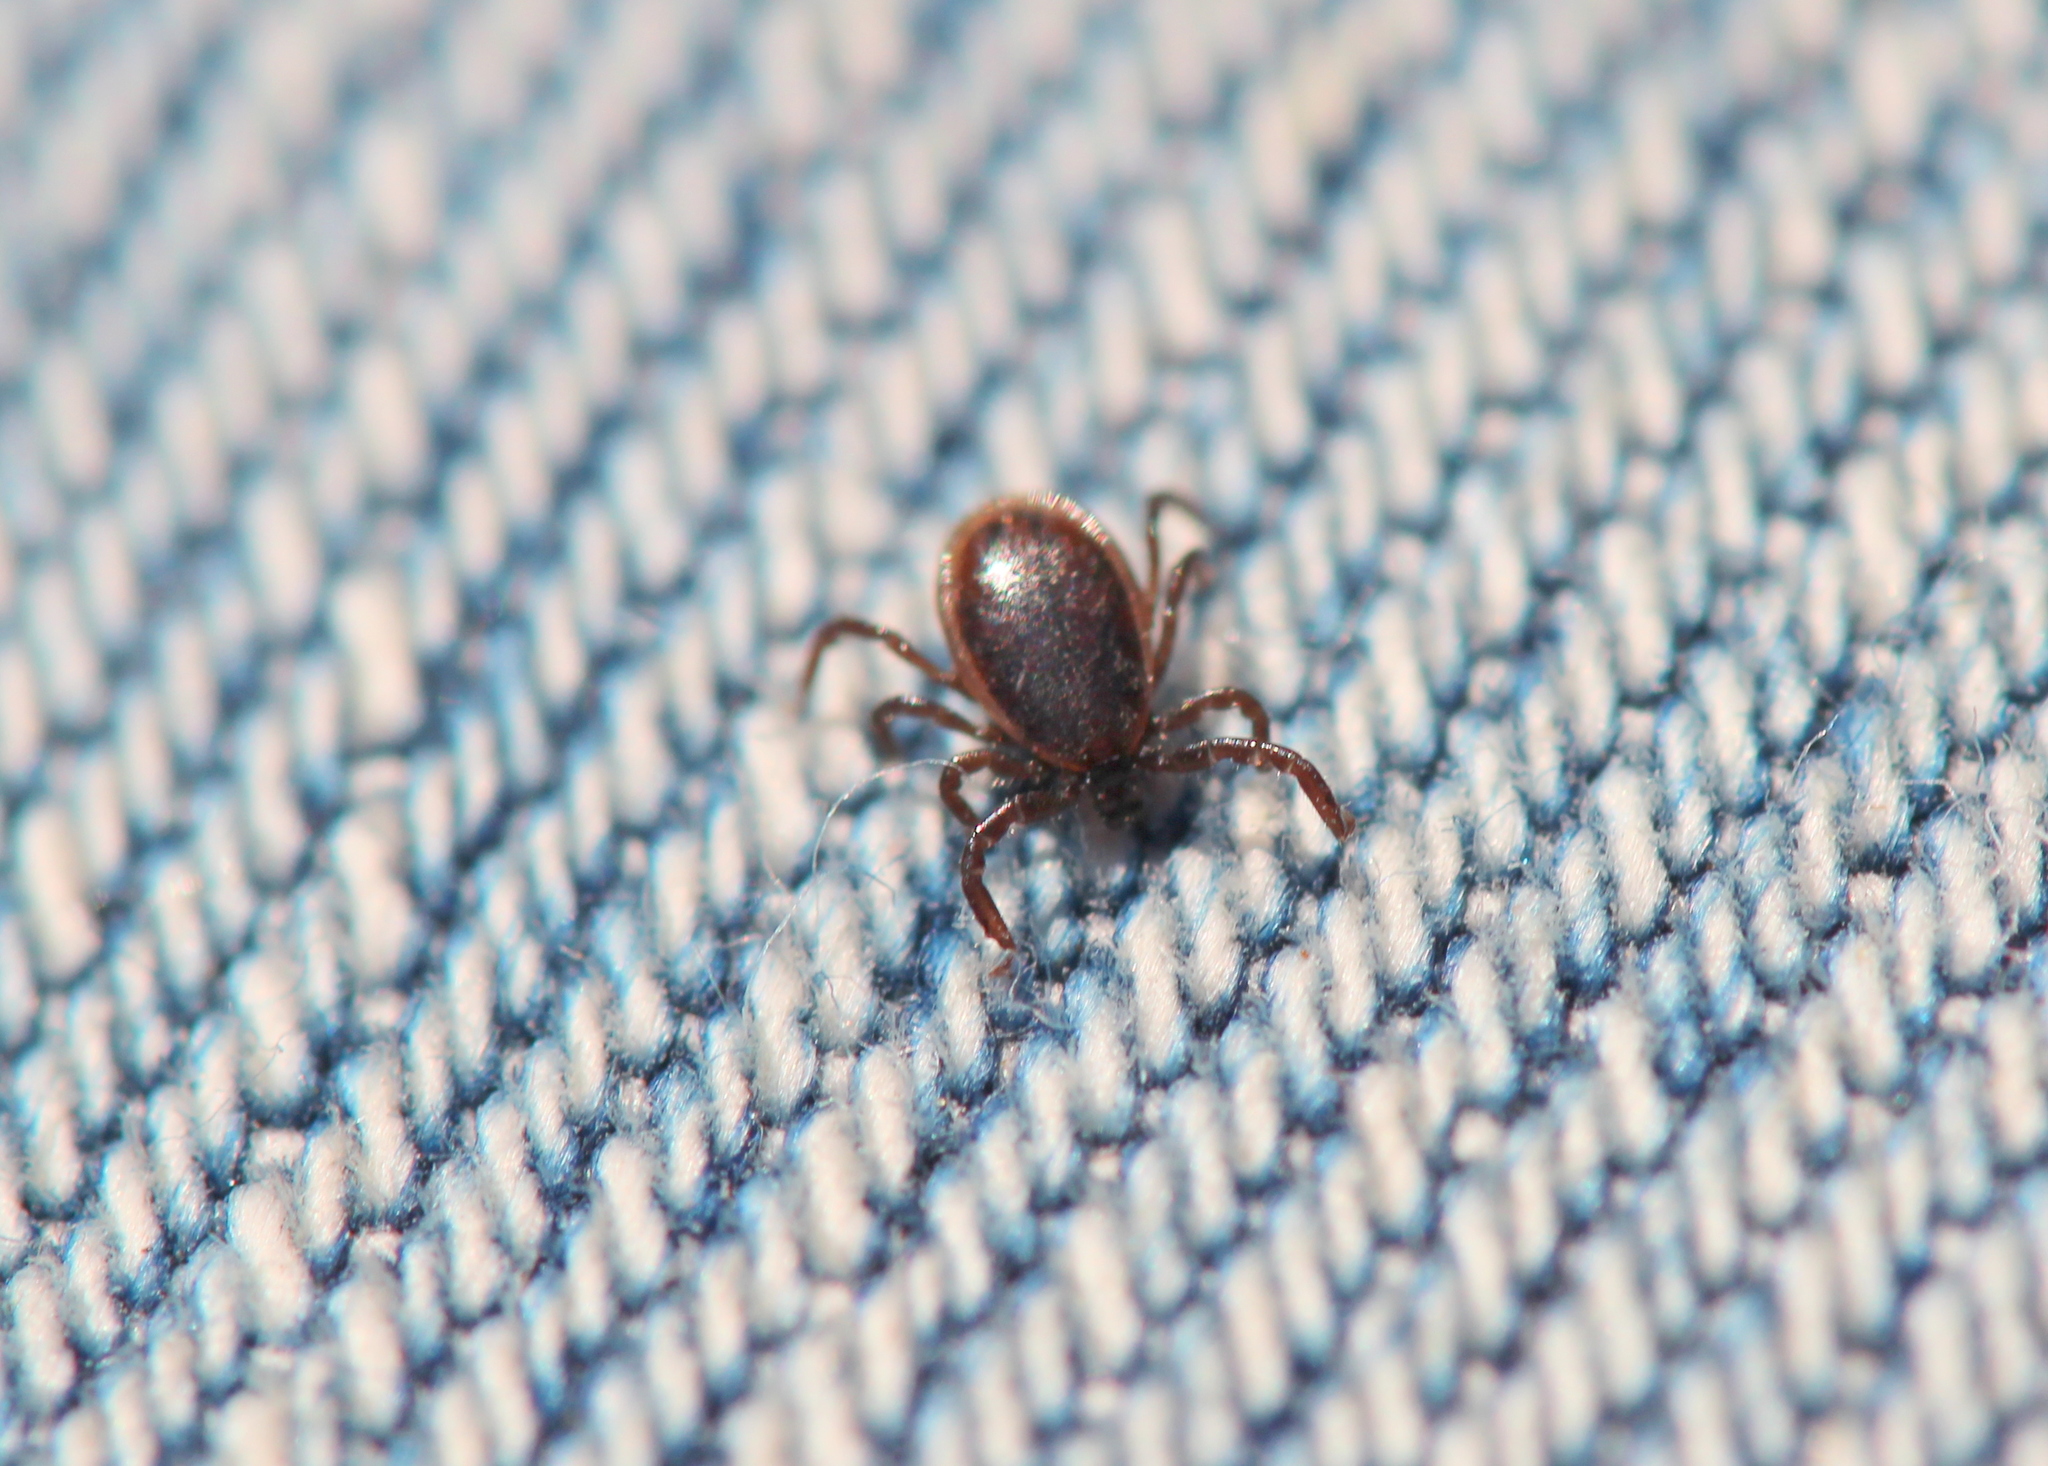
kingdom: Animalia
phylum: Arthropoda
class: Arachnida
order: Ixodida
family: Ixodidae
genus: Ixodes
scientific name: Ixodes scapularis
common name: Black legged tick
